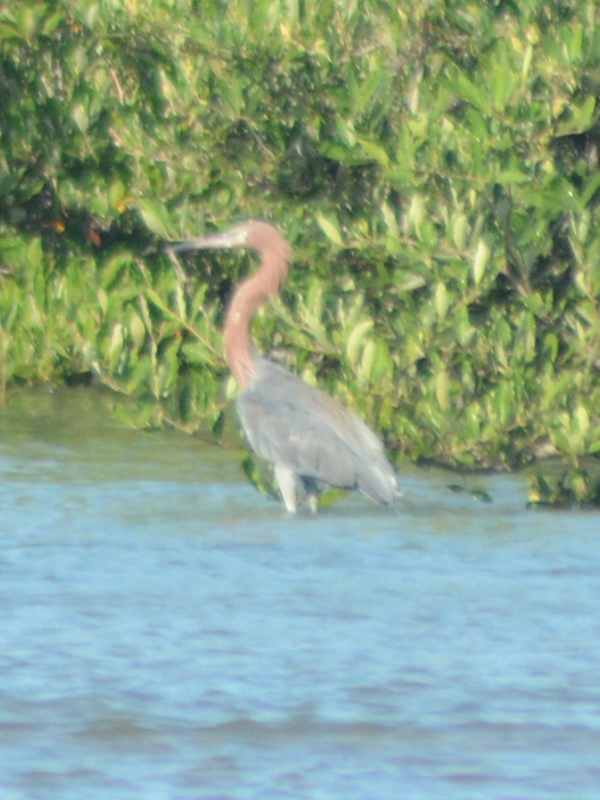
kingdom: Animalia
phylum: Chordata
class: Aves
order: Pelecaniformes
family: Ardeidae
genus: Egretta
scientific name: Egretta rufescens
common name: Reddish egret
